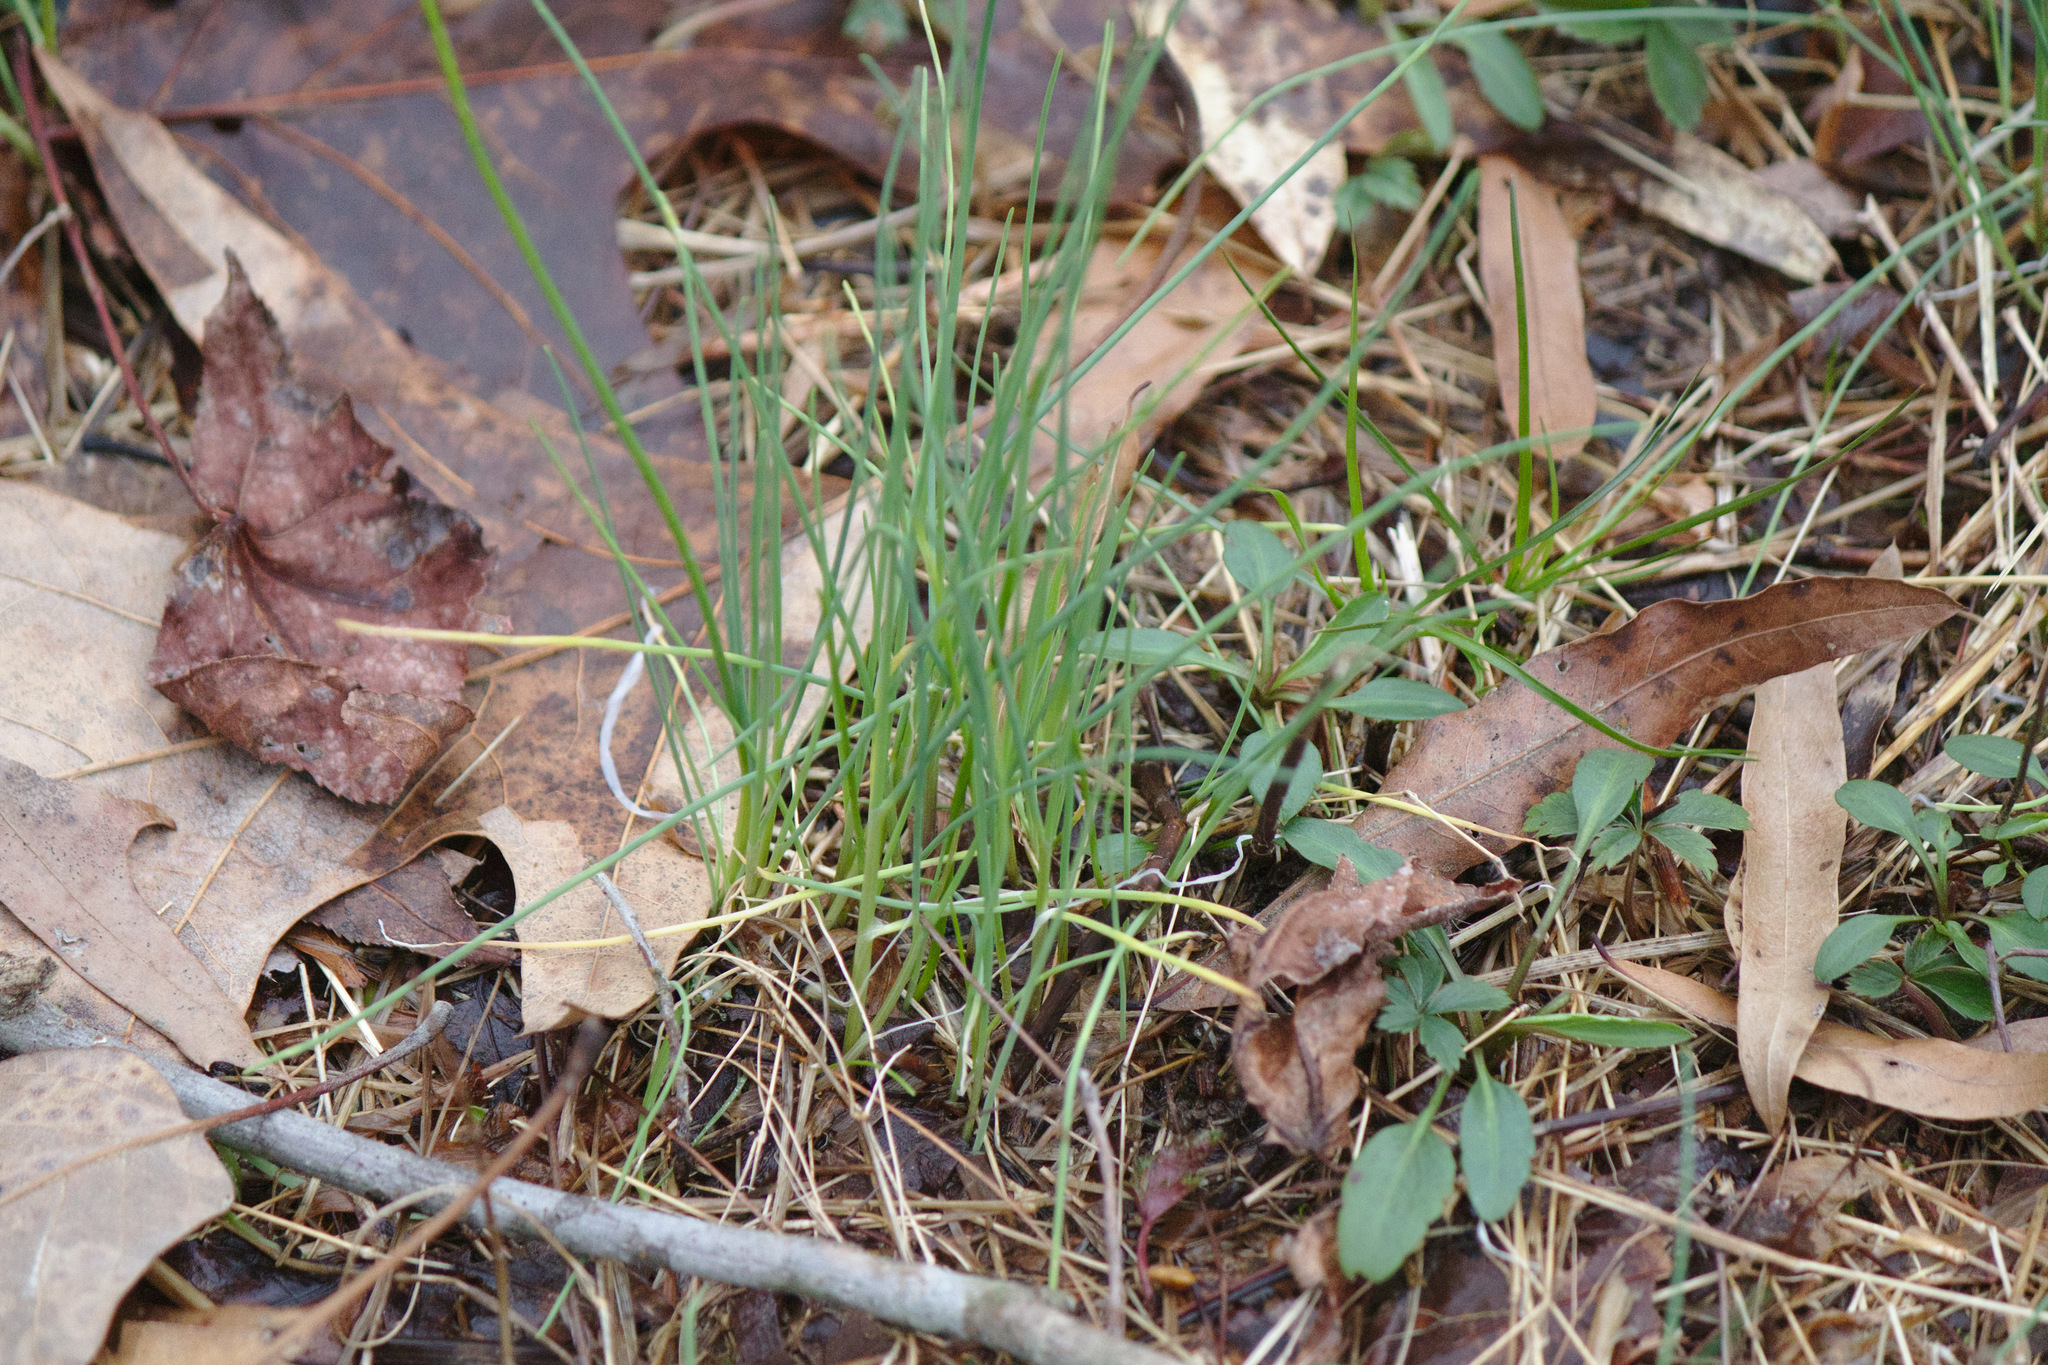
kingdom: Plantae
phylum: Tracheophyta
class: Liliopsida
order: Asparagales
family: Amaryllidaceae
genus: Allium
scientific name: Allium vineale
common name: Crow garlic
